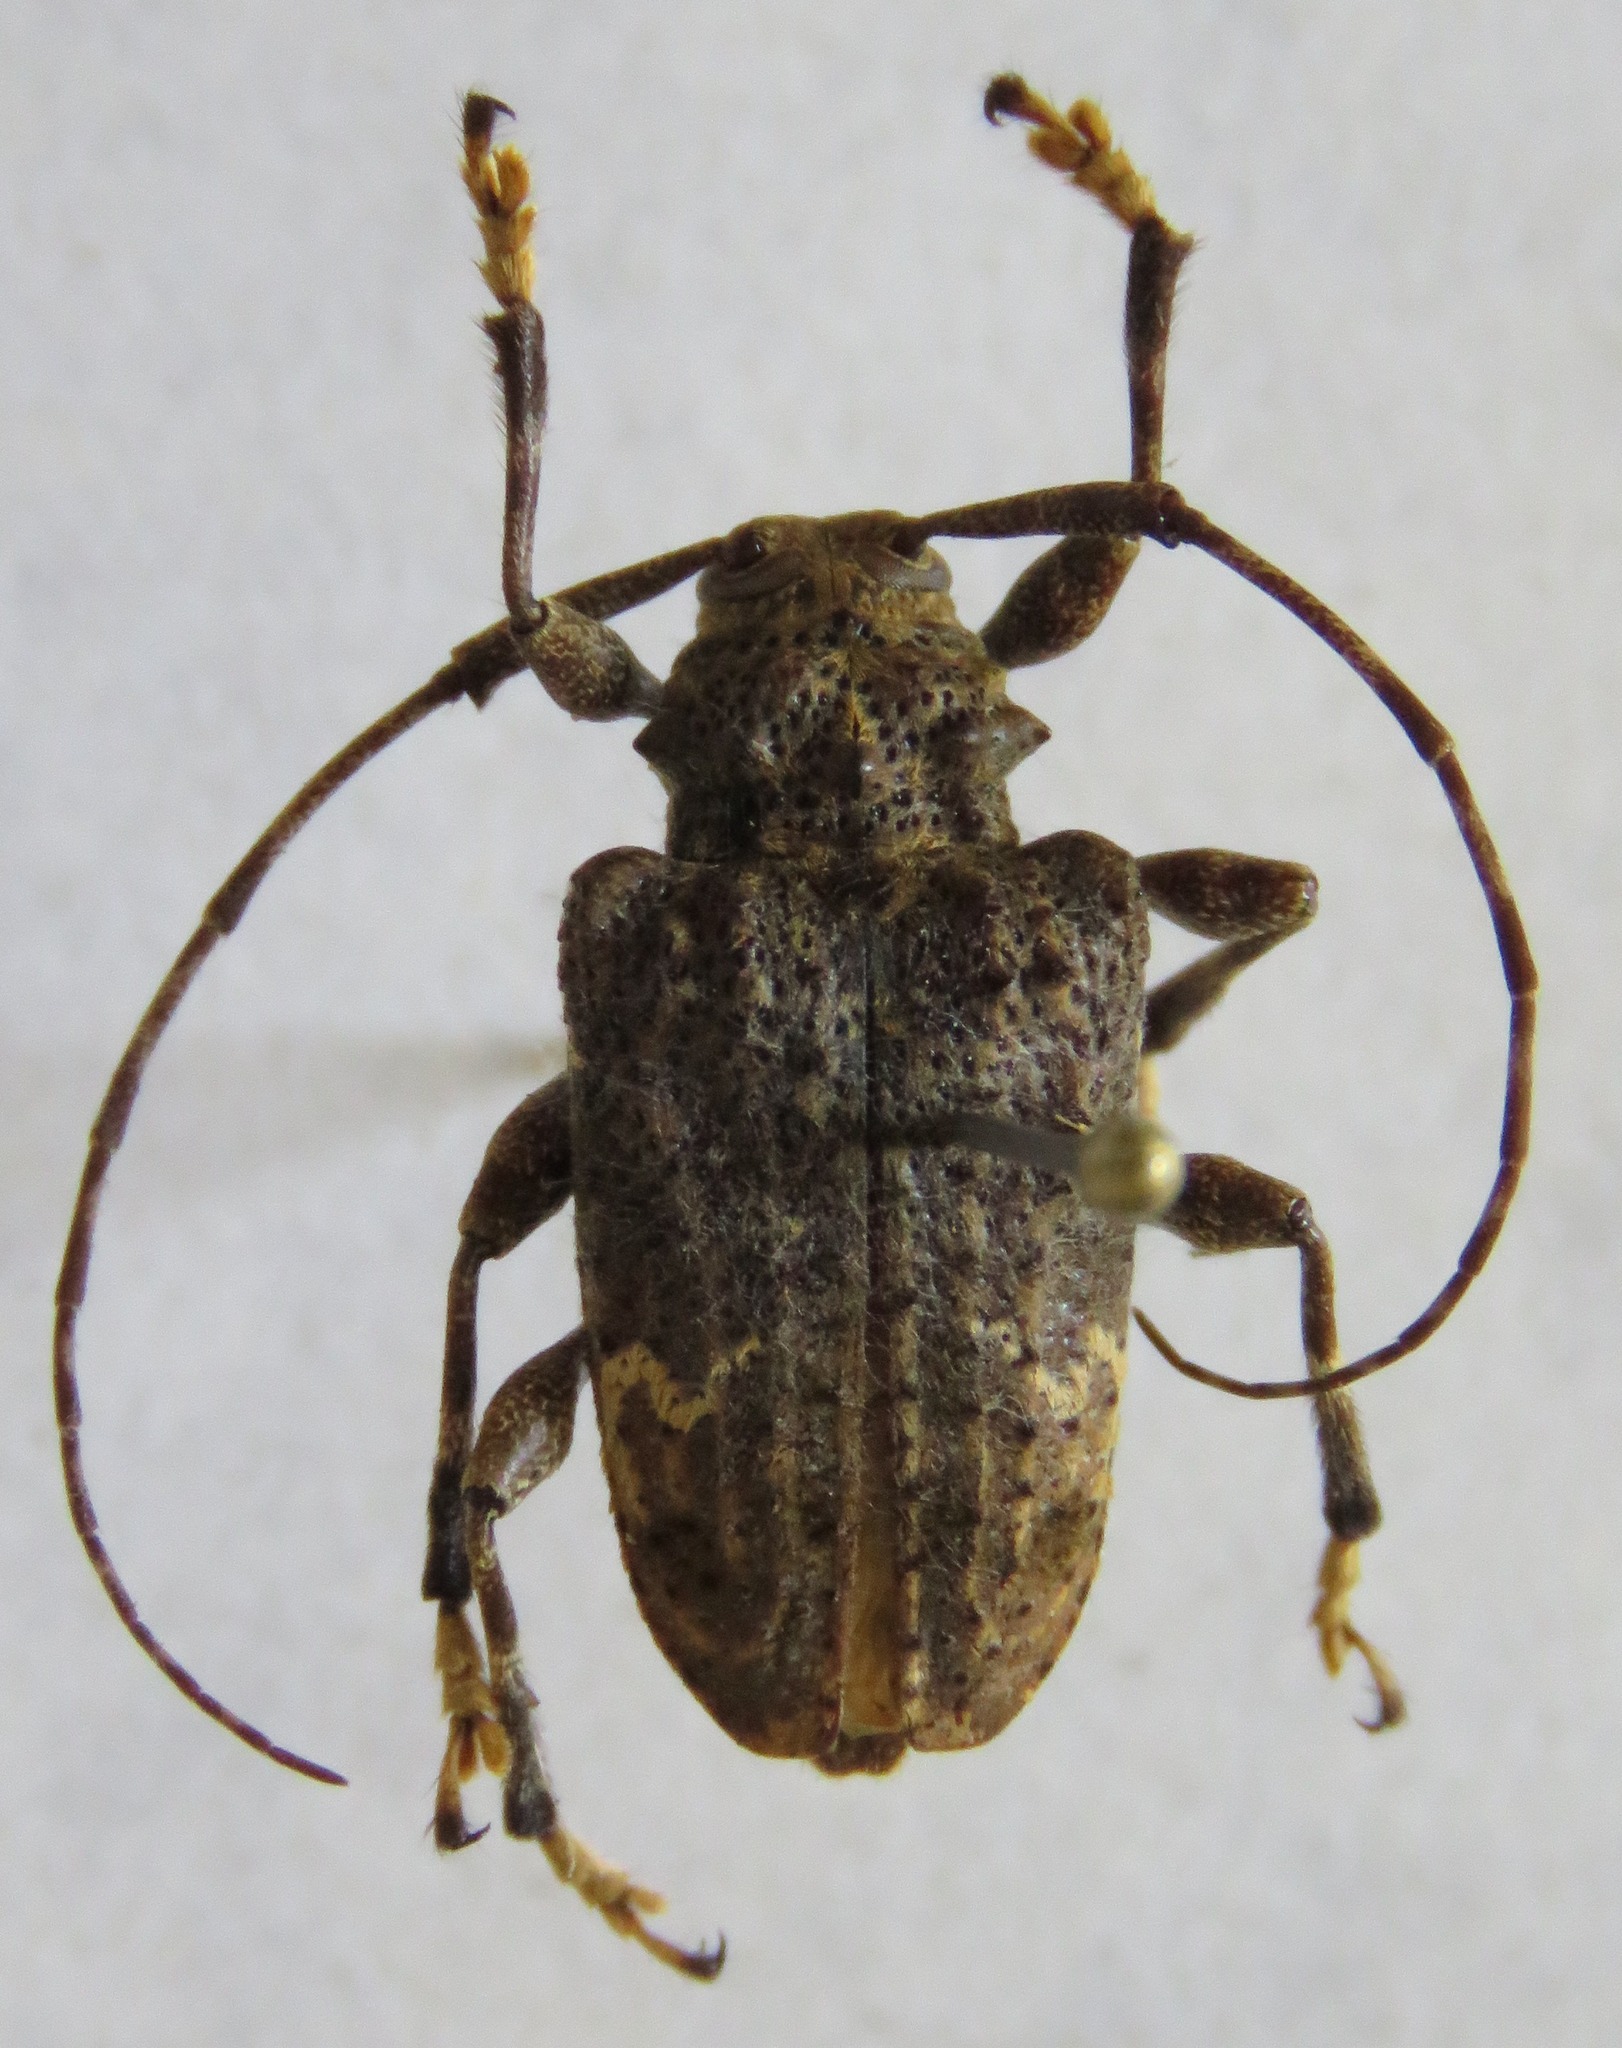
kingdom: Animalia
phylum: Arthropoda
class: Insecta
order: Coleoptera
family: Cerambycidae
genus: Lagocheirus
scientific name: Lagocheirus binumeratus
